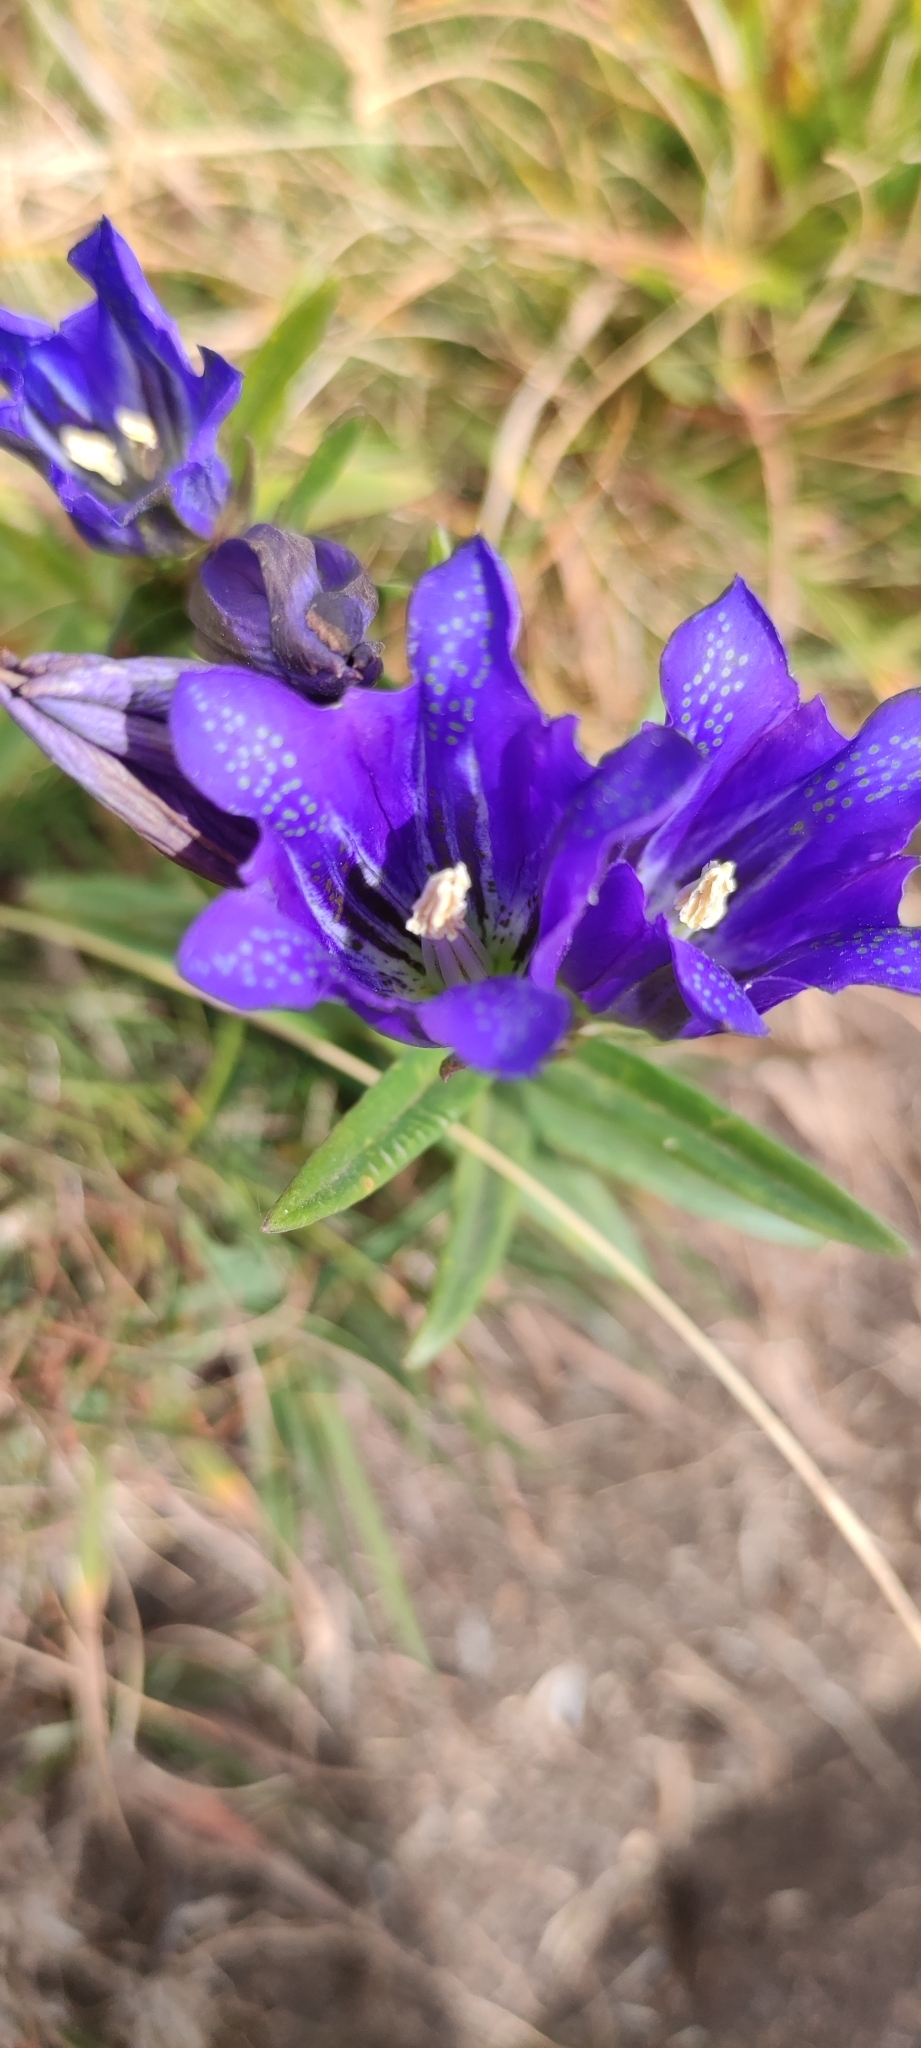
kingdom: Plantae
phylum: Tracheophyta
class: Magnoliopsida
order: Gentianales
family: Gentianaceae
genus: Gentiana
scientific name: Gentiana pneumonanthe
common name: Marsh gentian
